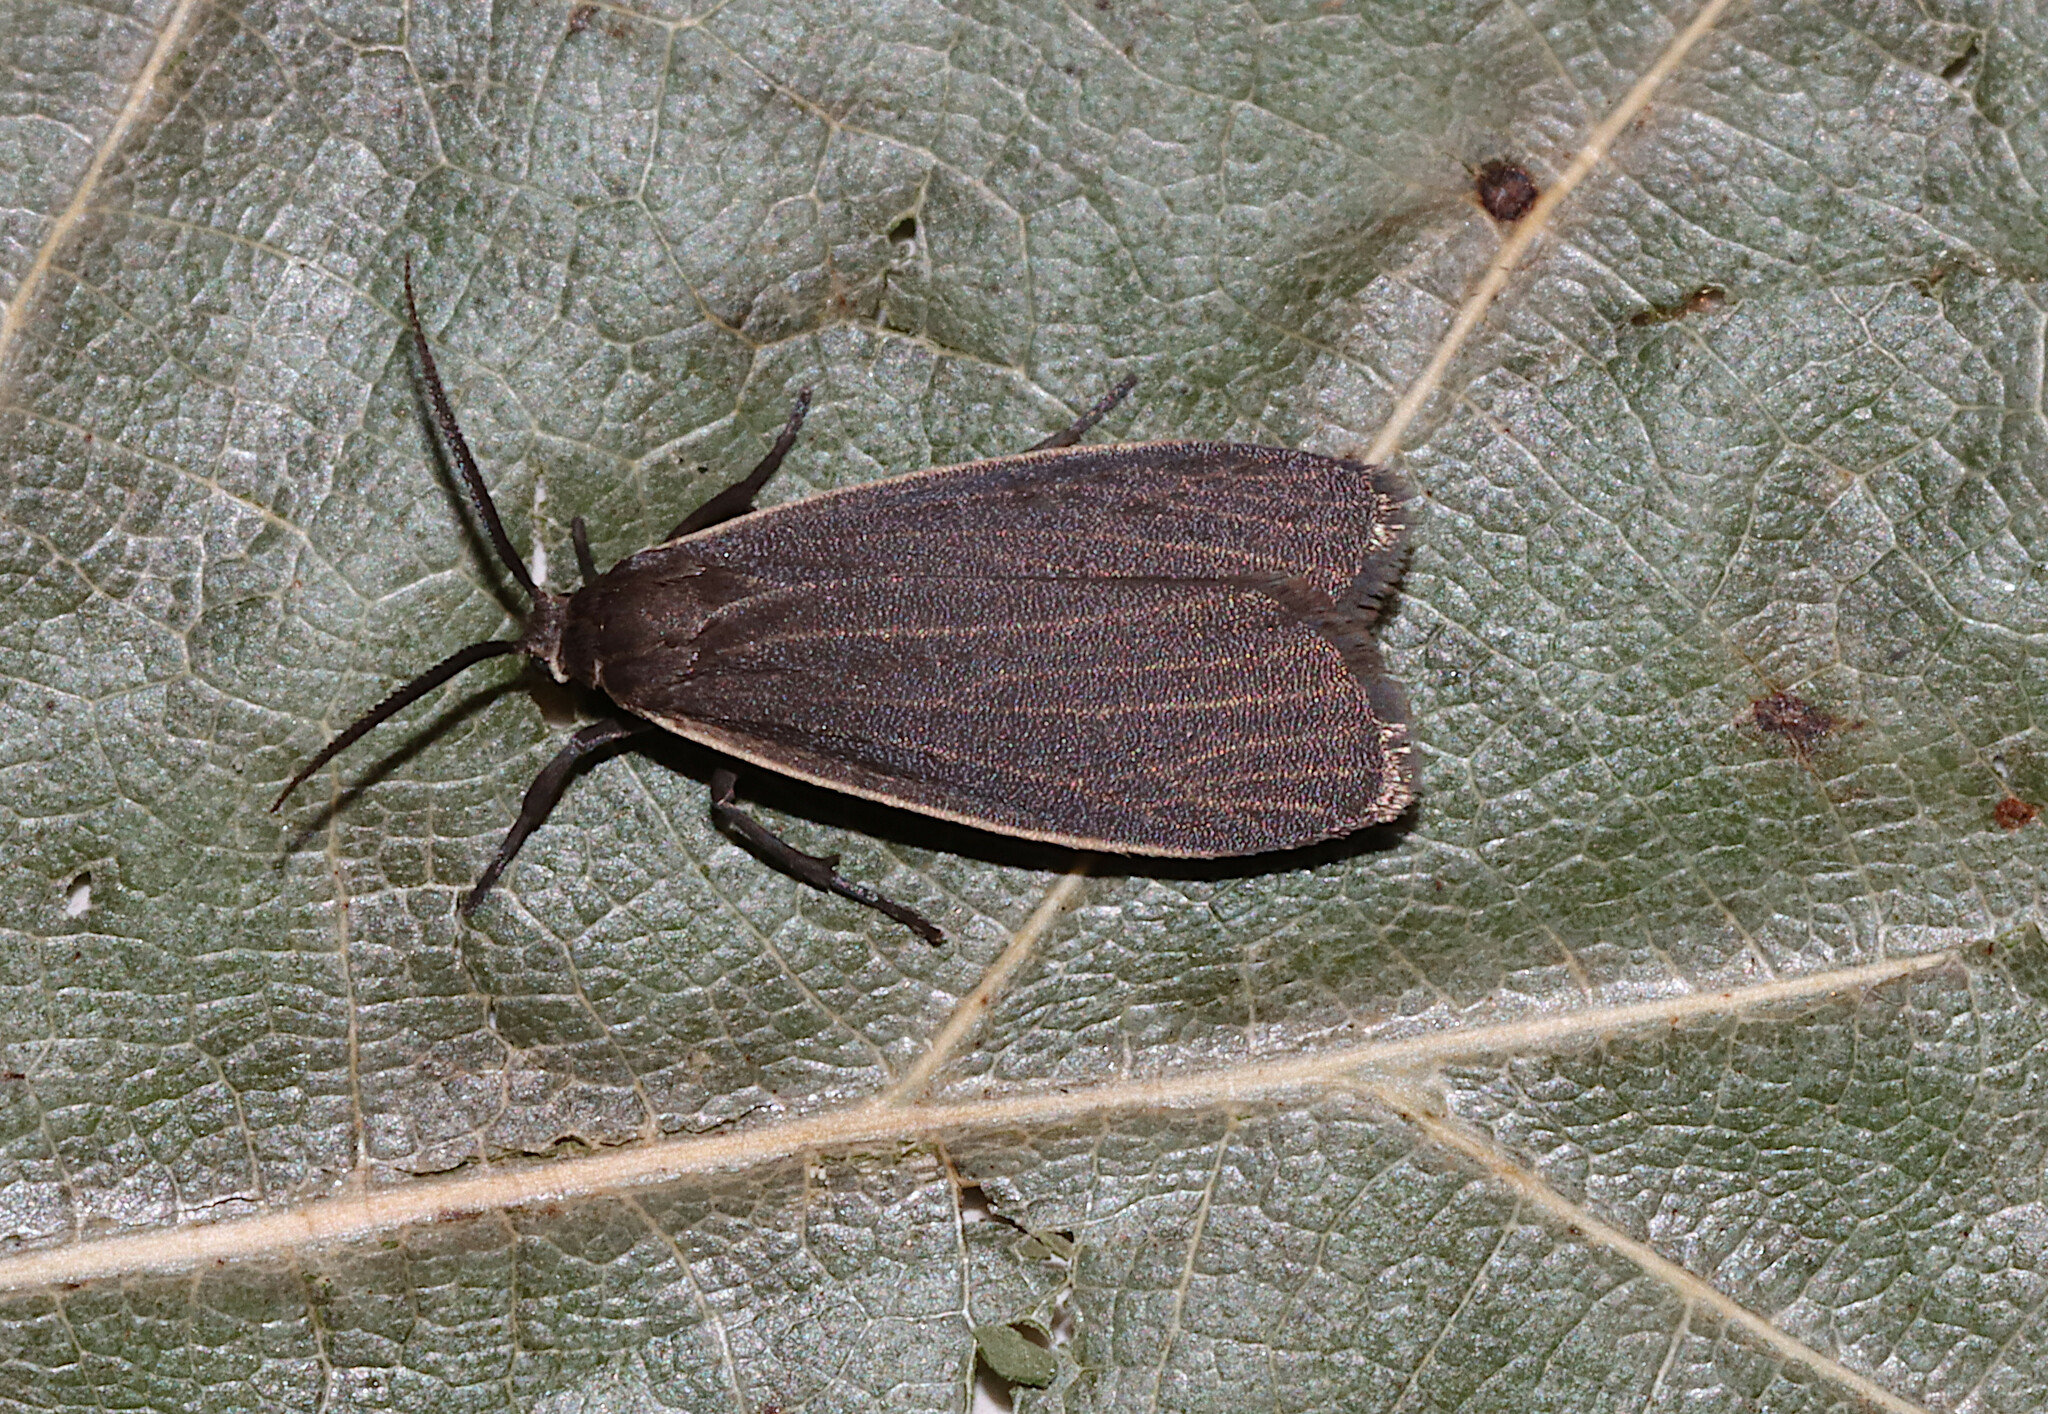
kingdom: Animalia
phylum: Arthropoda
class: Insecta
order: Lepidoptera
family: Erebidae
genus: Crambidia
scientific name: Crambidia lithosioides
